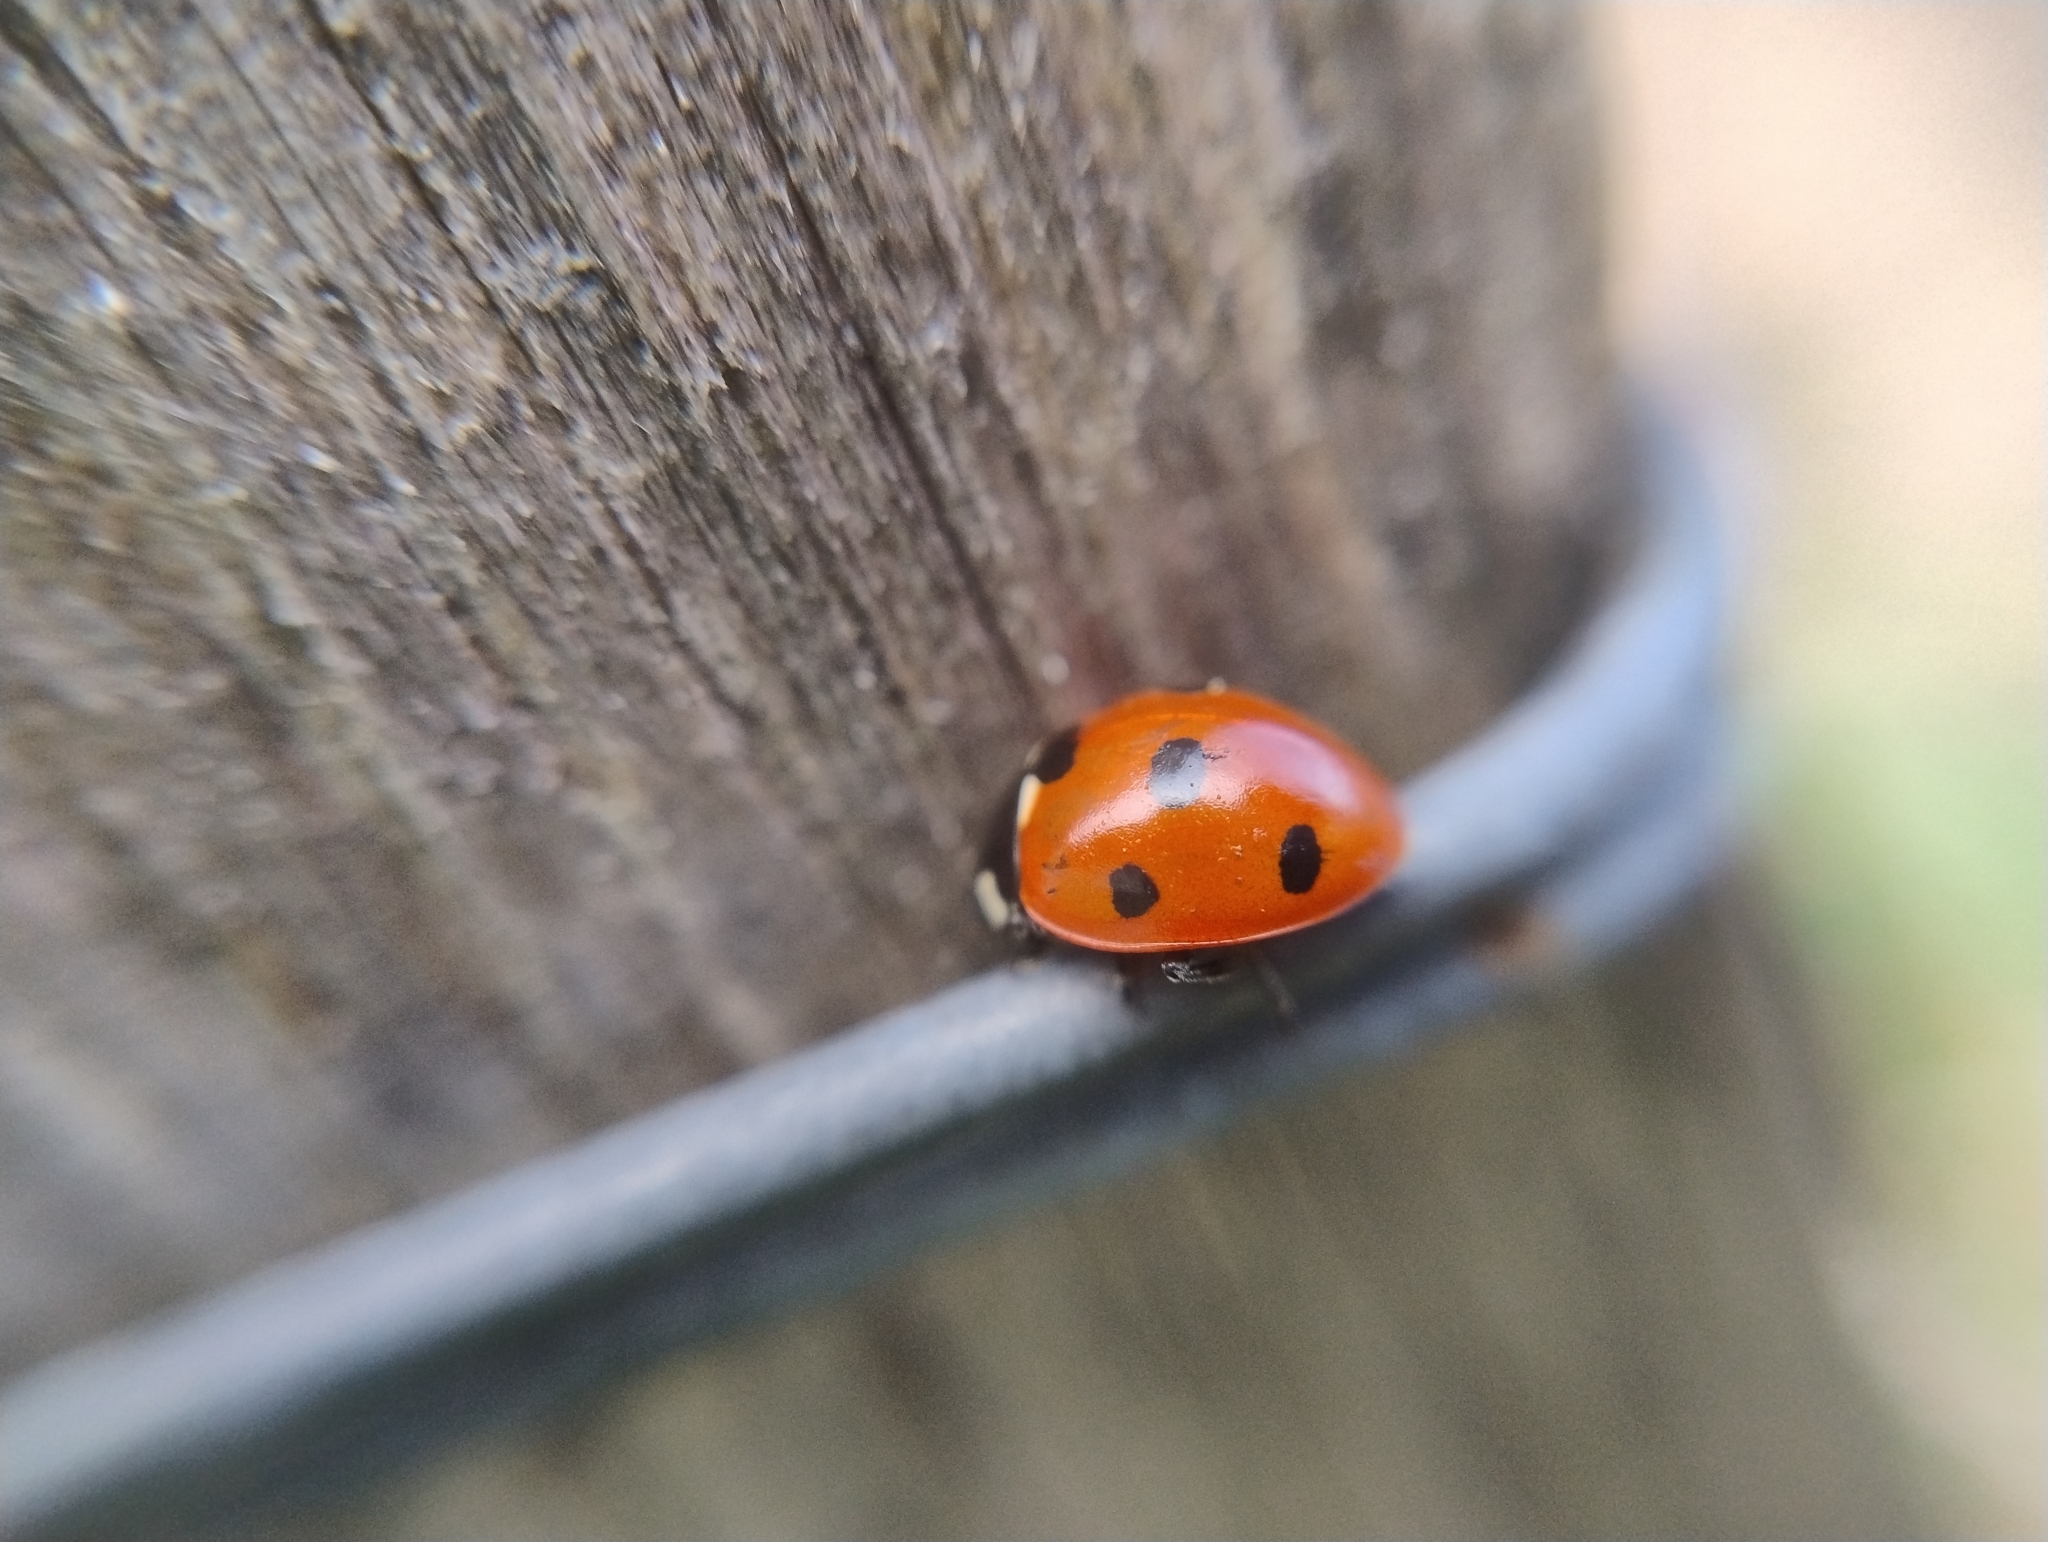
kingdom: Animalia
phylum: Arthropoda
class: Insecta
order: Coleoptera
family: Coccinellidae
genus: Coccinella
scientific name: Coccinella septempunctata
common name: Sevenspotted lady beetle
